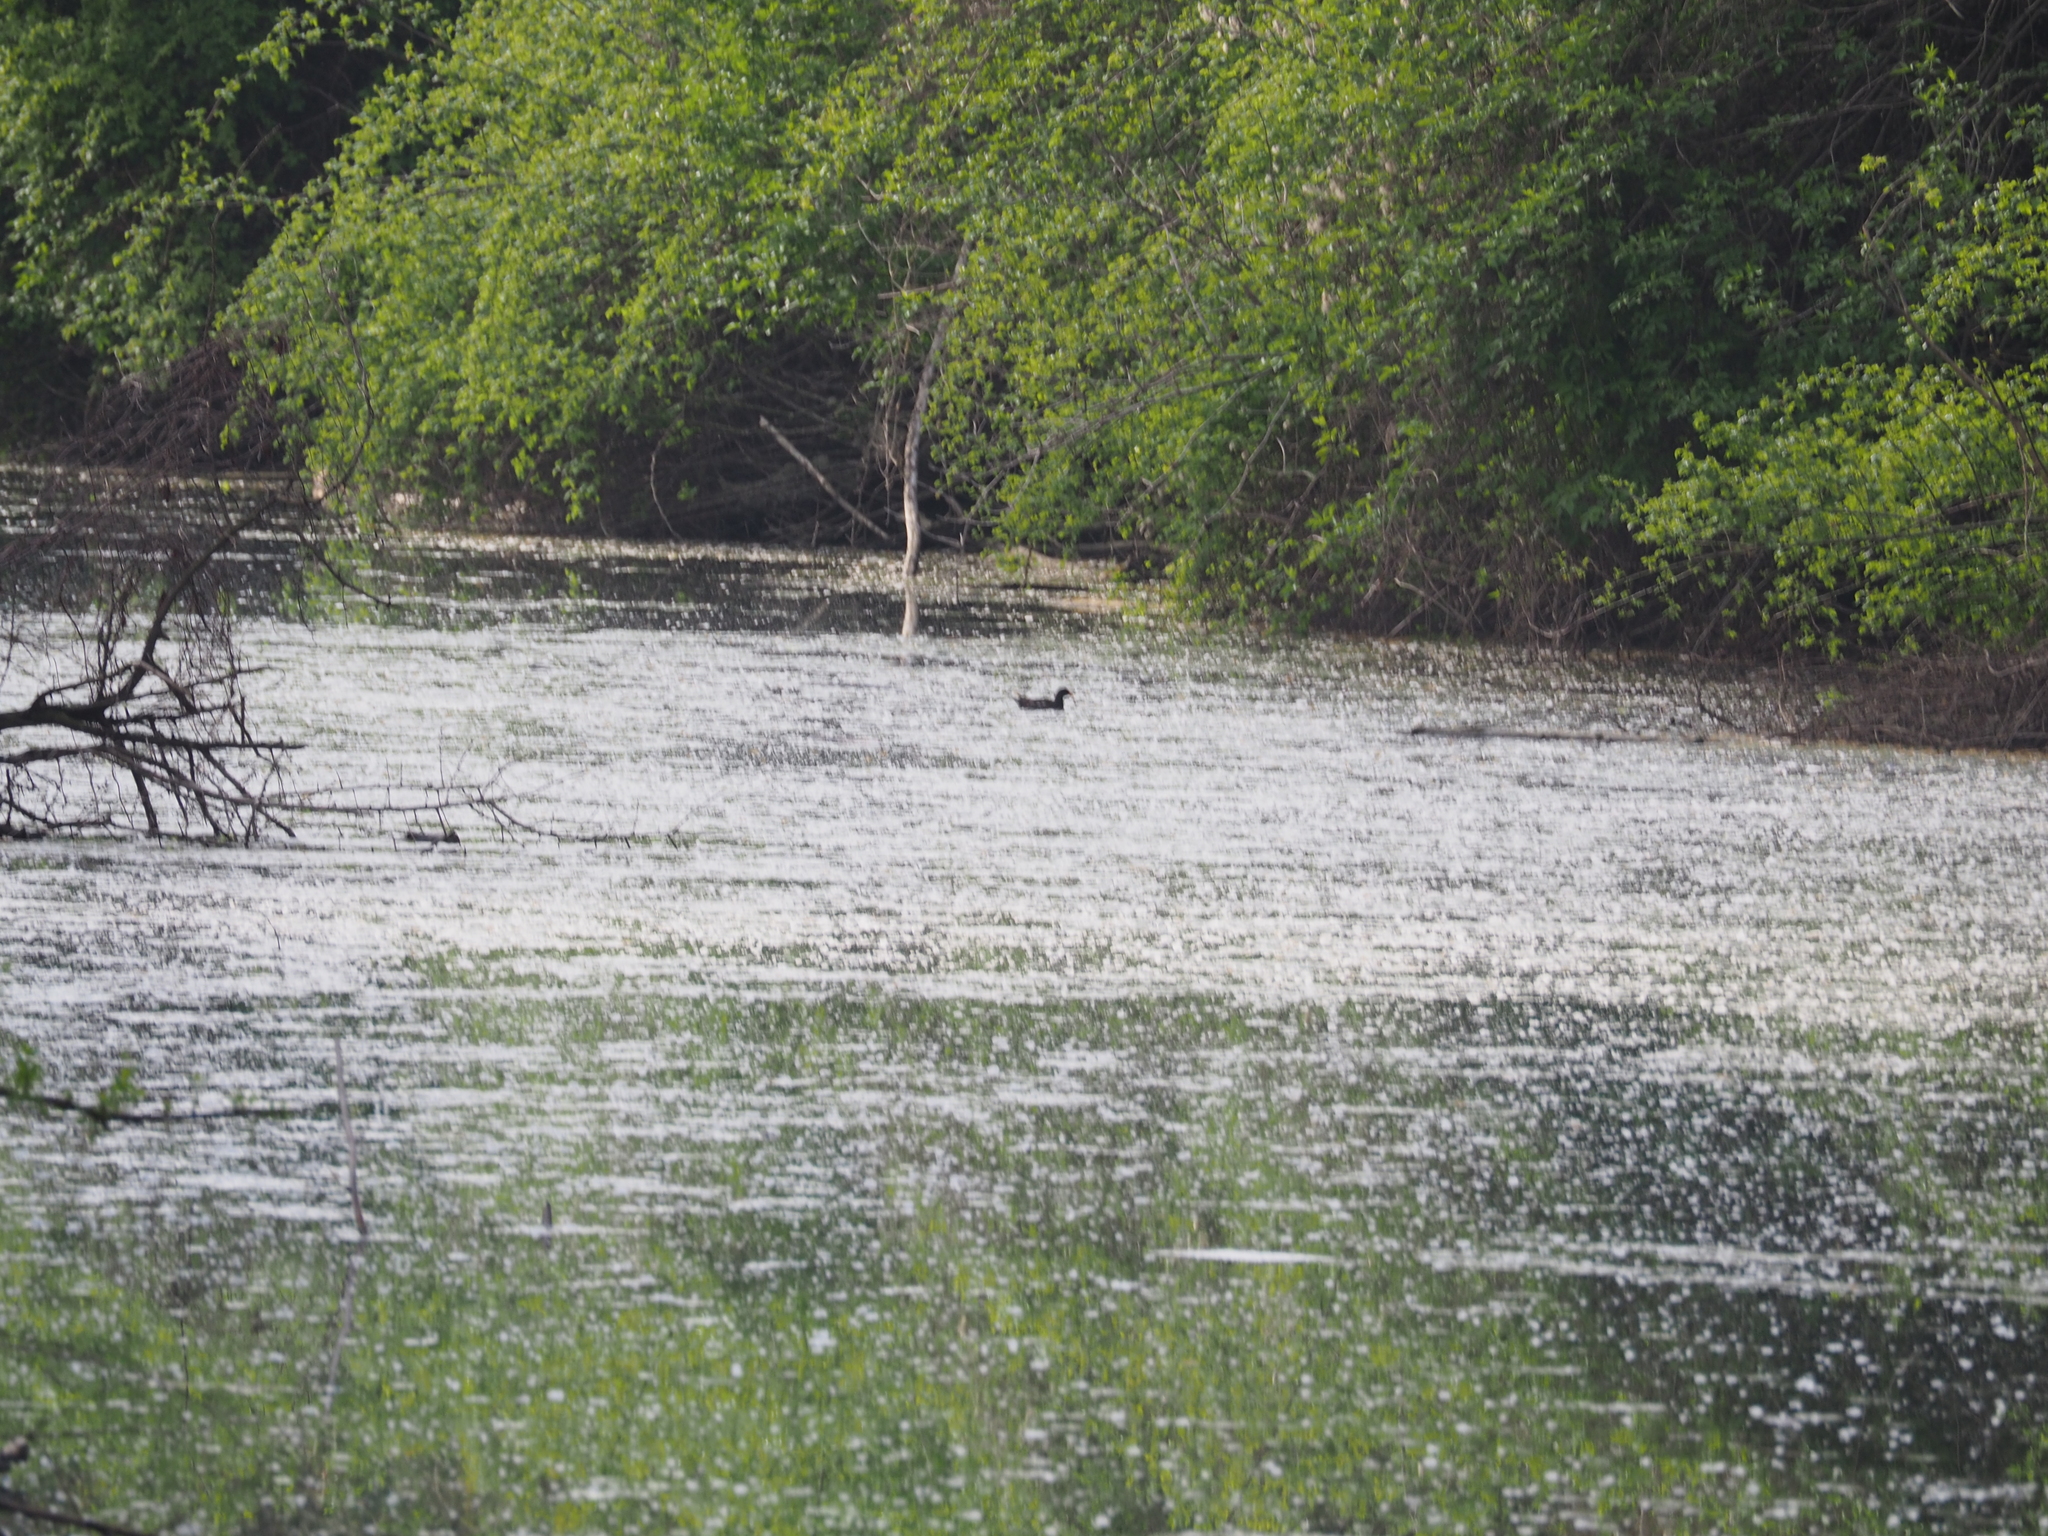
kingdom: Animalia
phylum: Chordata
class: Aves
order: Gruiformes
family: Rallidae
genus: Gallinula
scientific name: Gallinula chloropus
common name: Common moorhen
